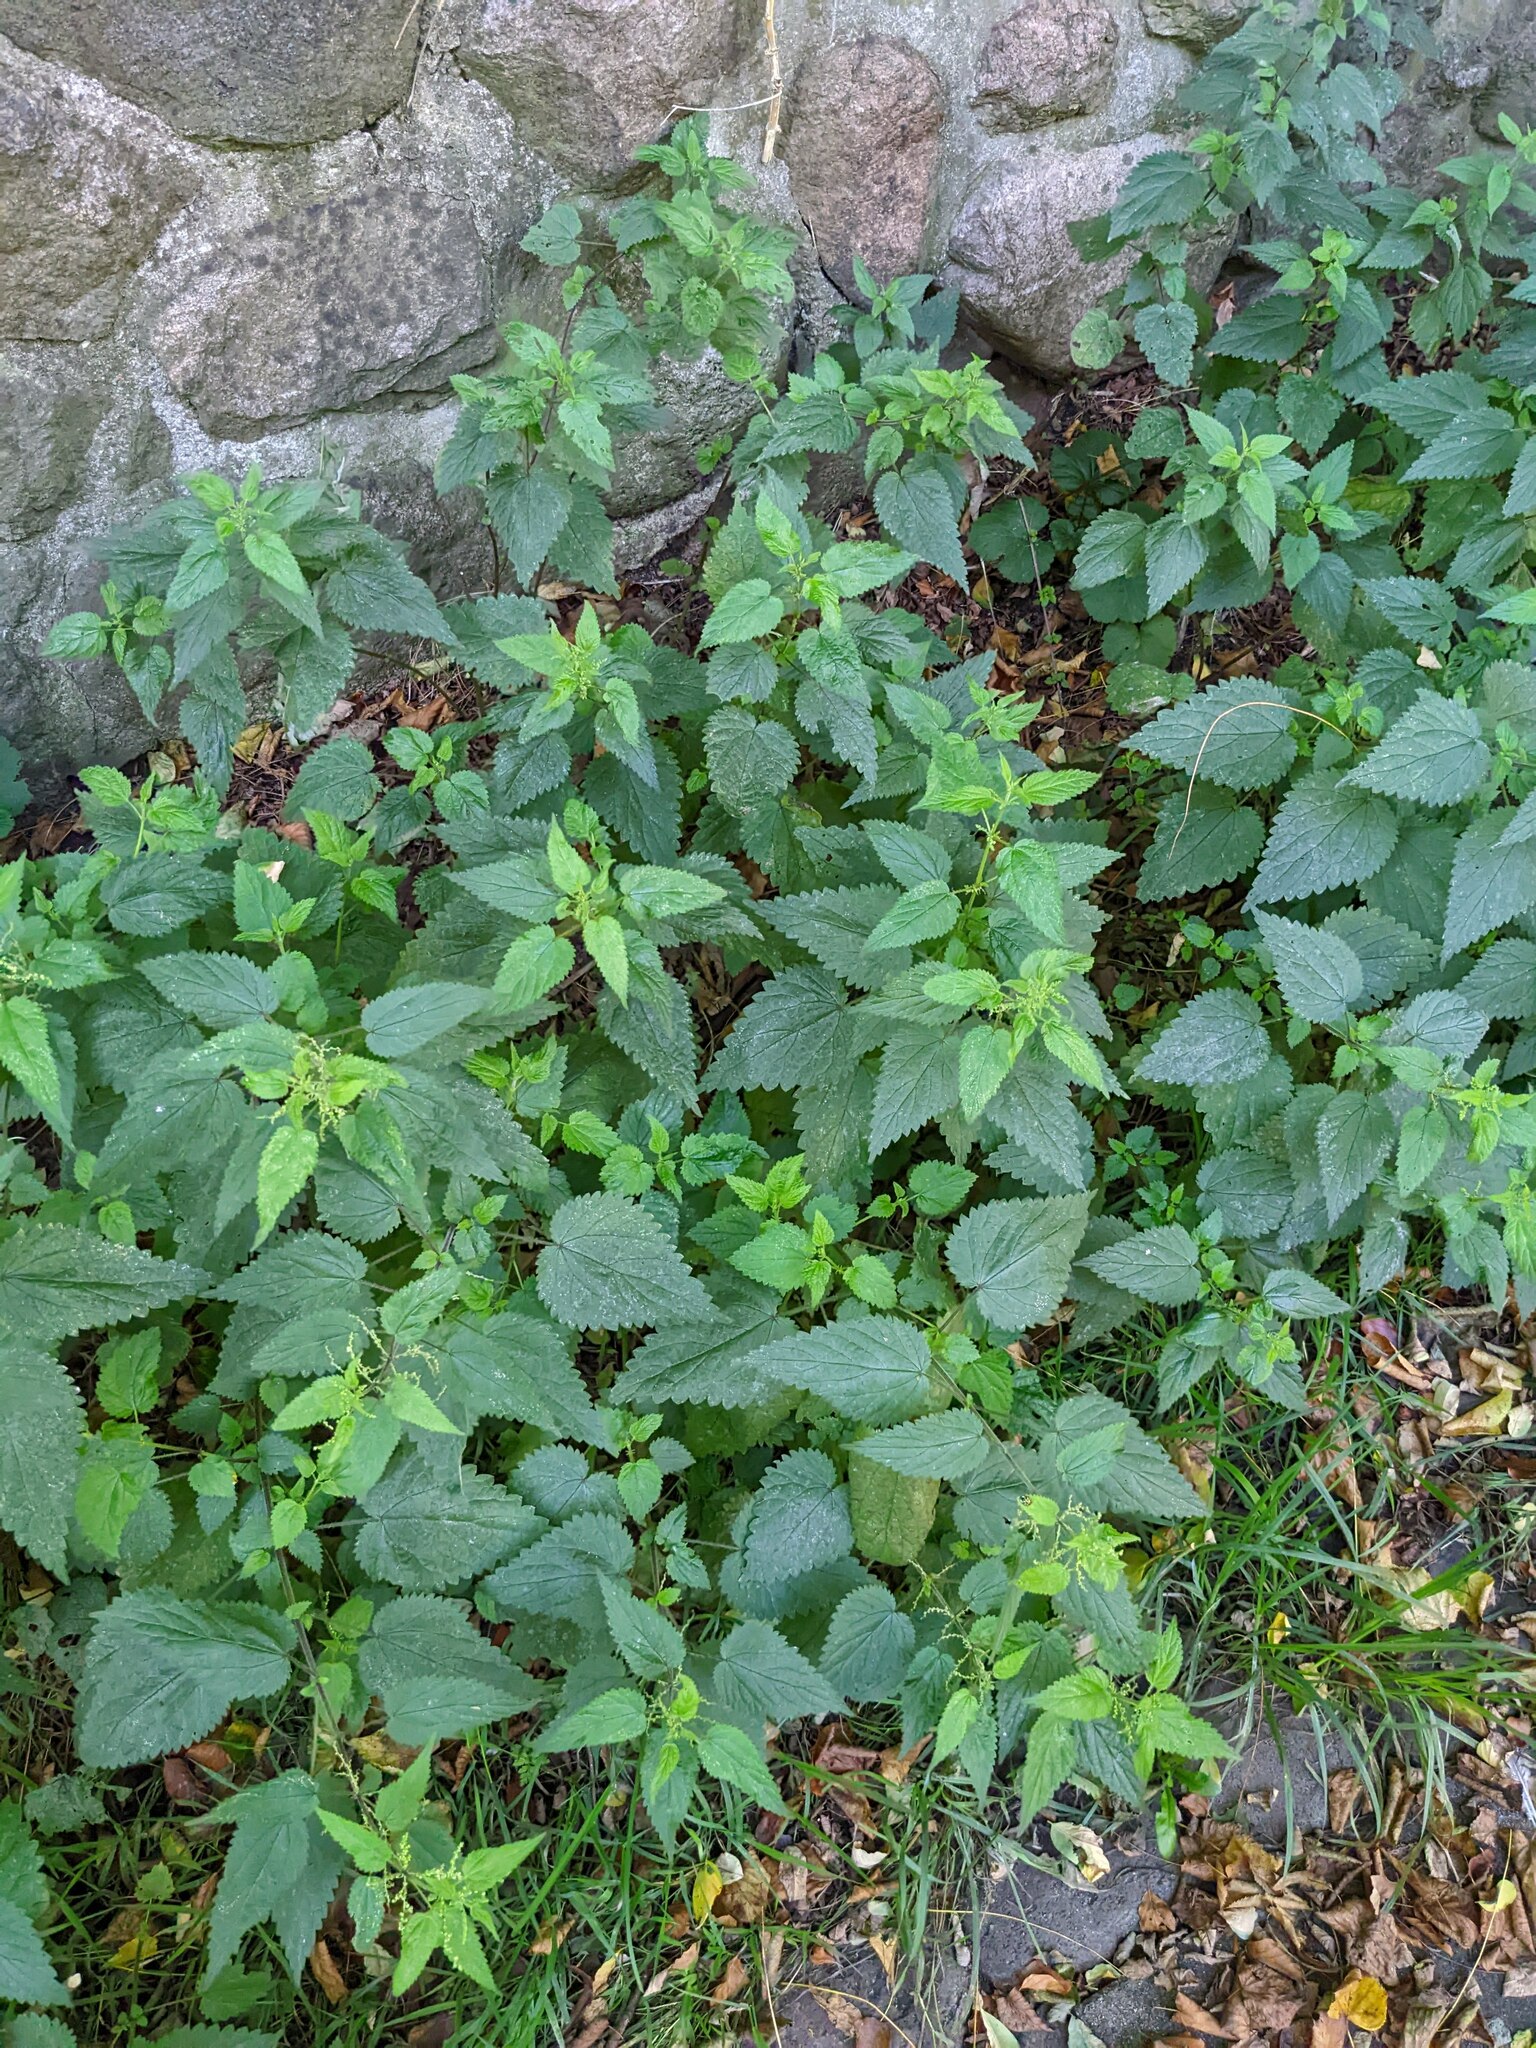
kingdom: Plantae
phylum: Tracheophyta
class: Magnoliopsida
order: Rosales
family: Urticaceae
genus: Urtica
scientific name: Urtica dioica
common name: Common nettle
